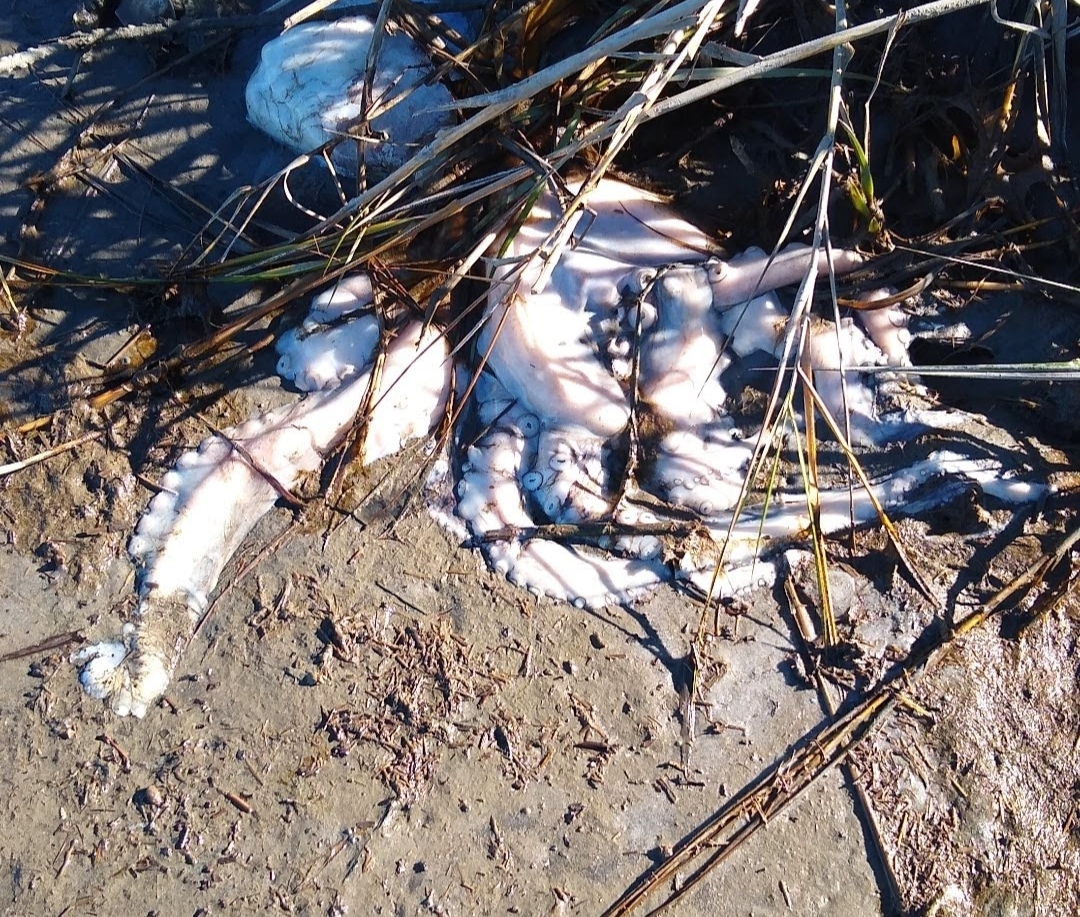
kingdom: Animalia
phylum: Mollusca
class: Cephalopoda
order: Octopoda
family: Octopodidae
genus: Octopus
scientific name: Octopus americanus
